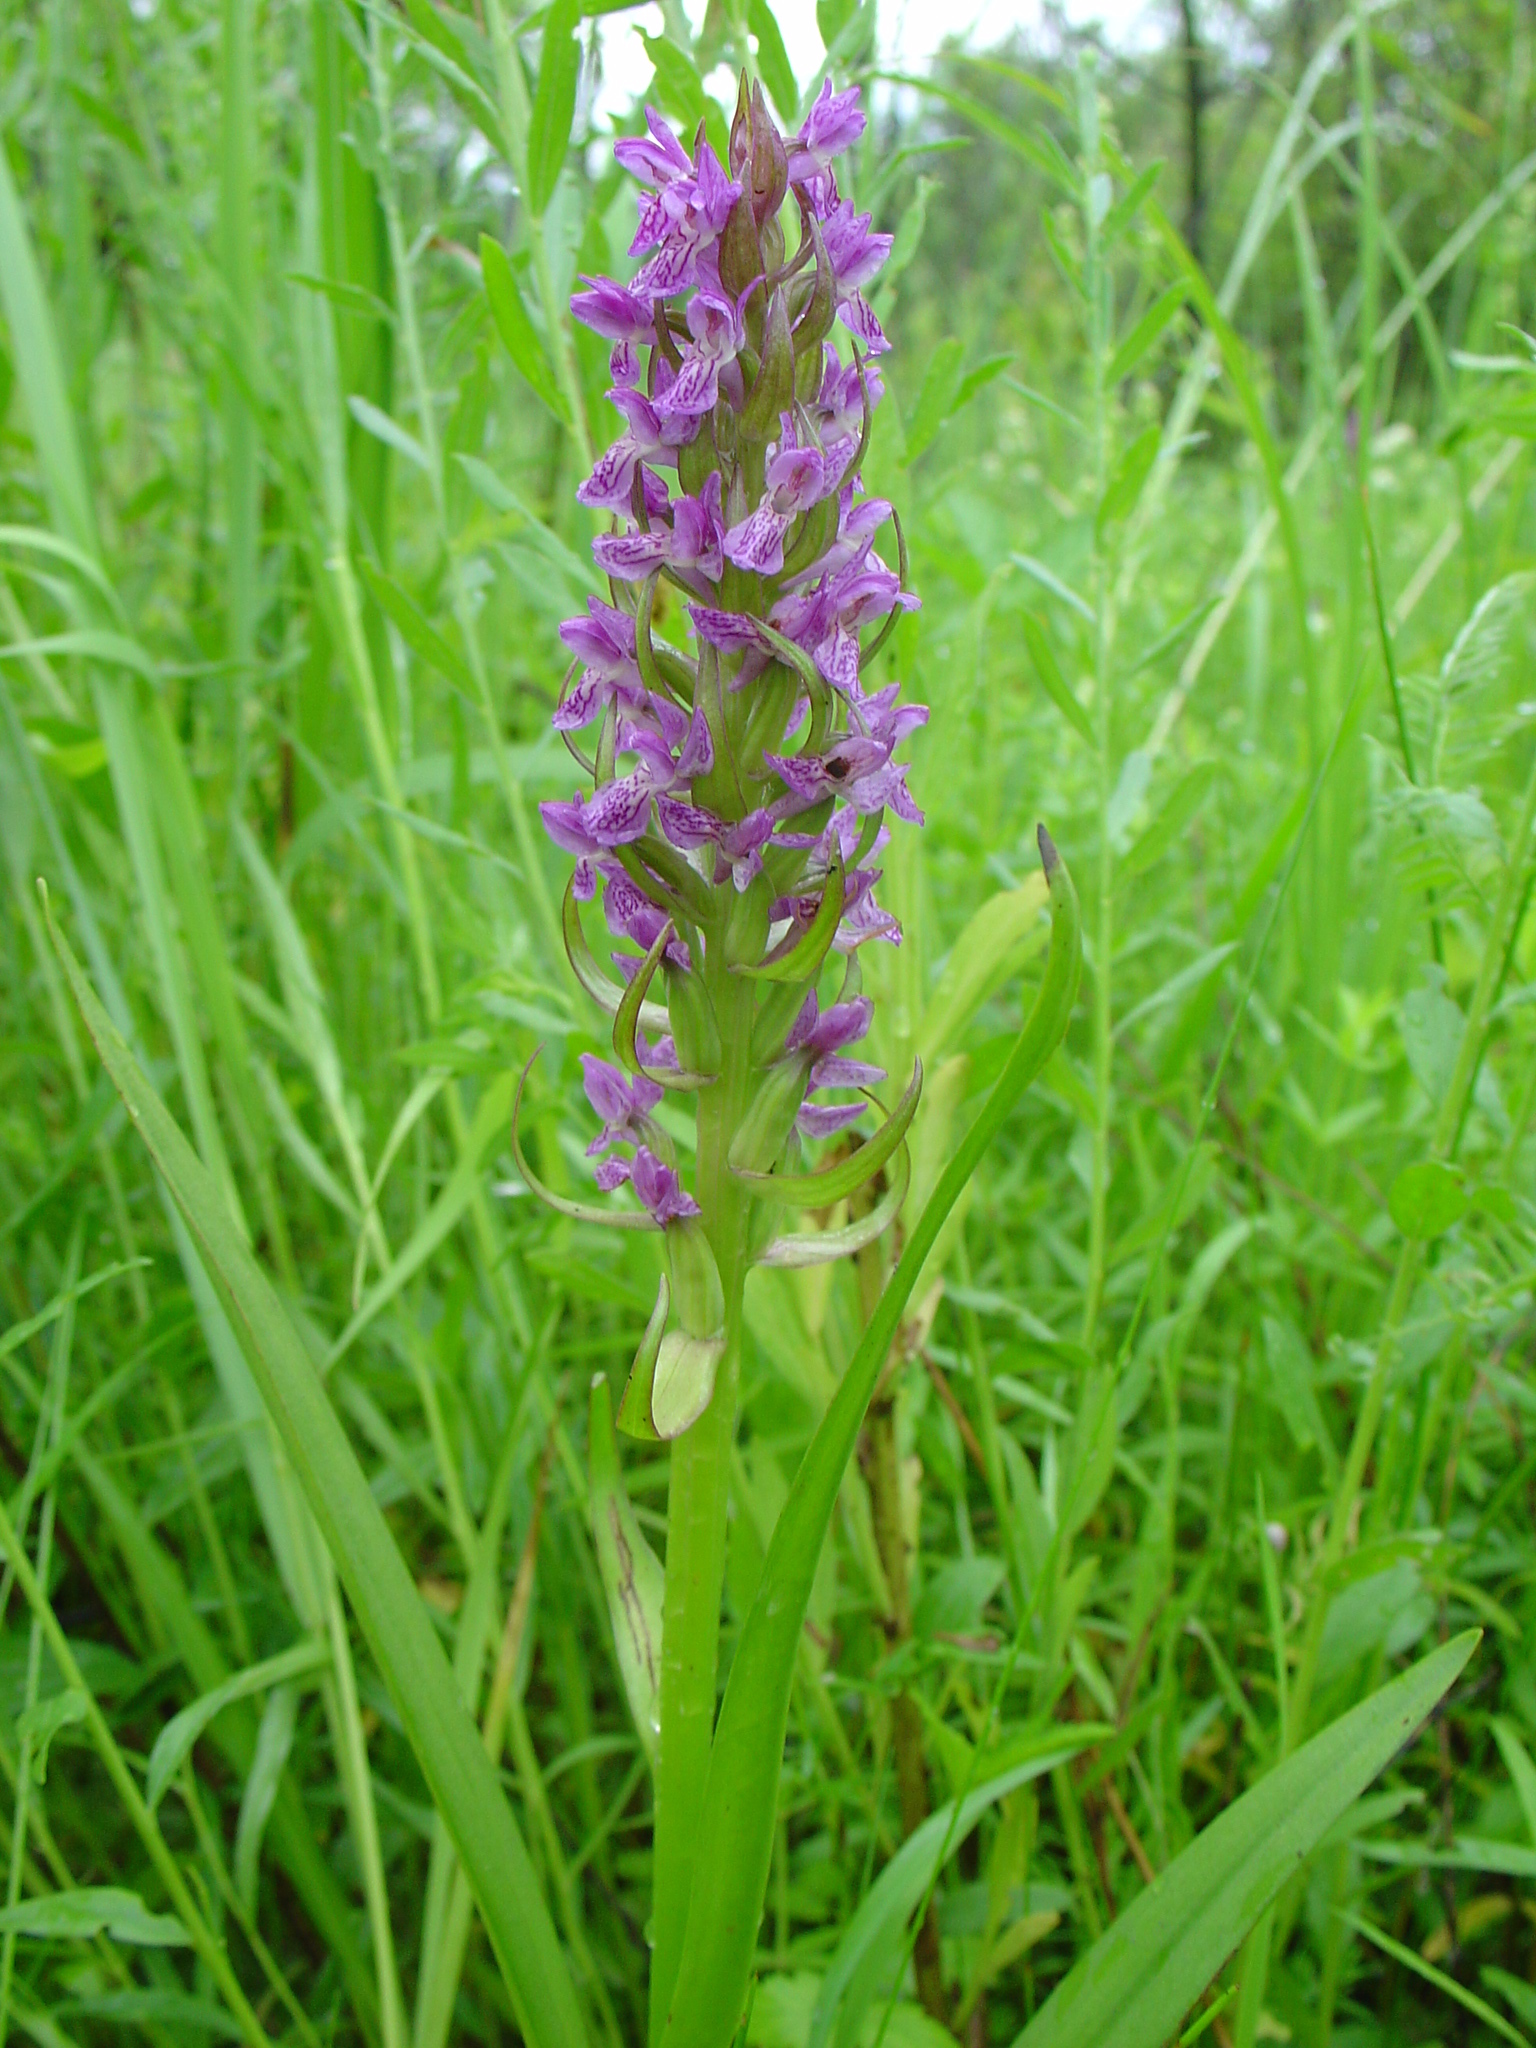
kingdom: Plantae
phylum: Tracheophyta
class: Liliopsida
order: Asparagales
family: Orchidaceae
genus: Dactylorhiza
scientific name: Dactylorhiza incarnata
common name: Early marsh-orchid
